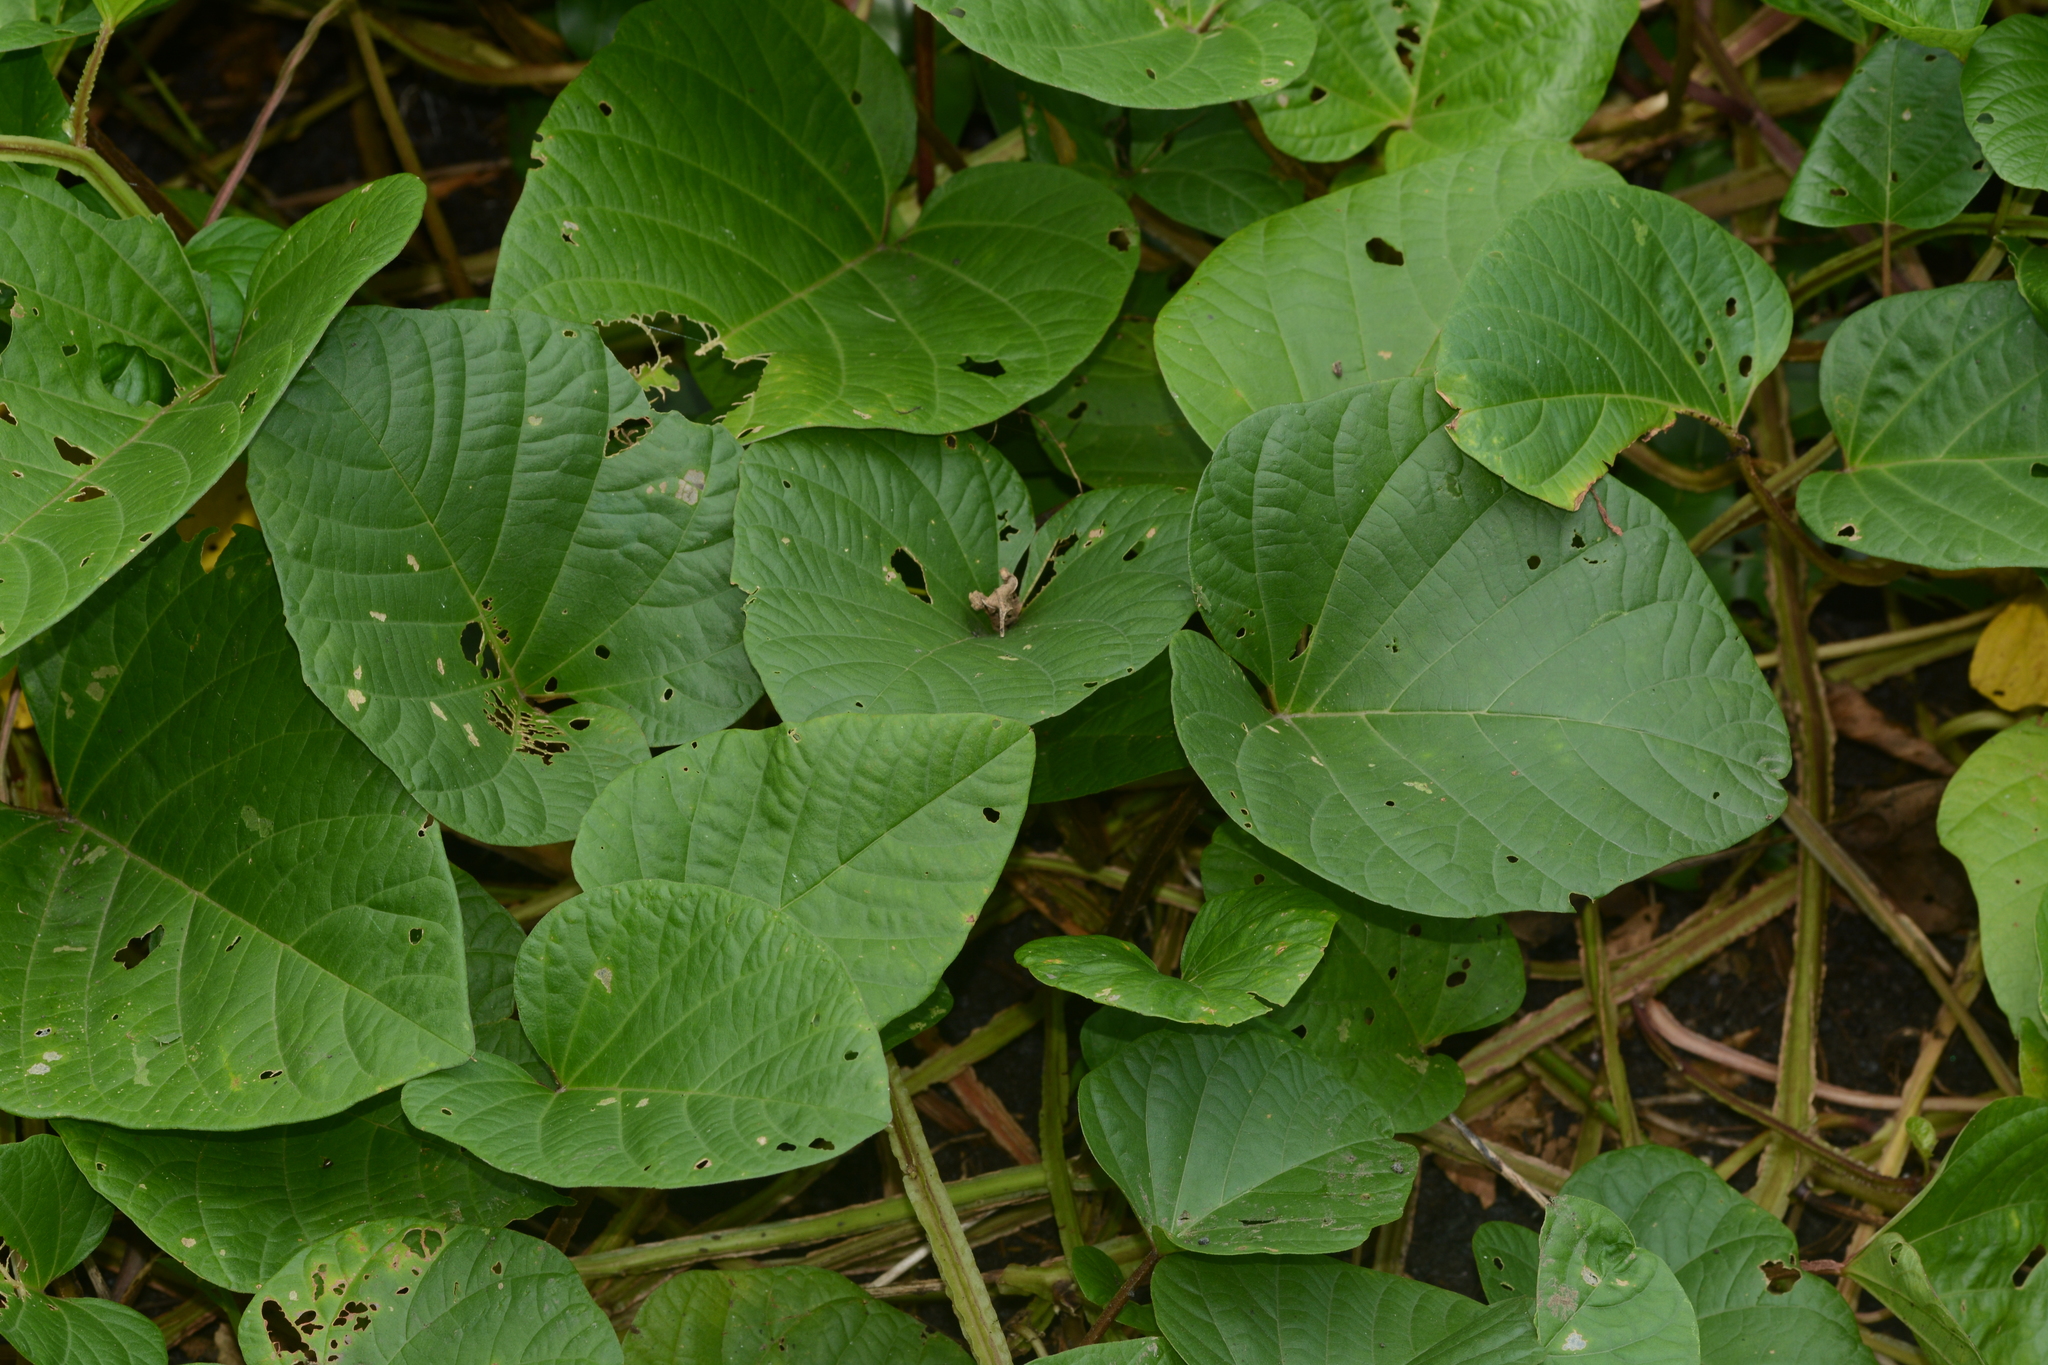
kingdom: Plantae
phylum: Tracheophyta
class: Magnoliopsida
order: Solanales
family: Convolvulaceae
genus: Operculina
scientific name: Operculina turpethum
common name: Transparent wood-rose
